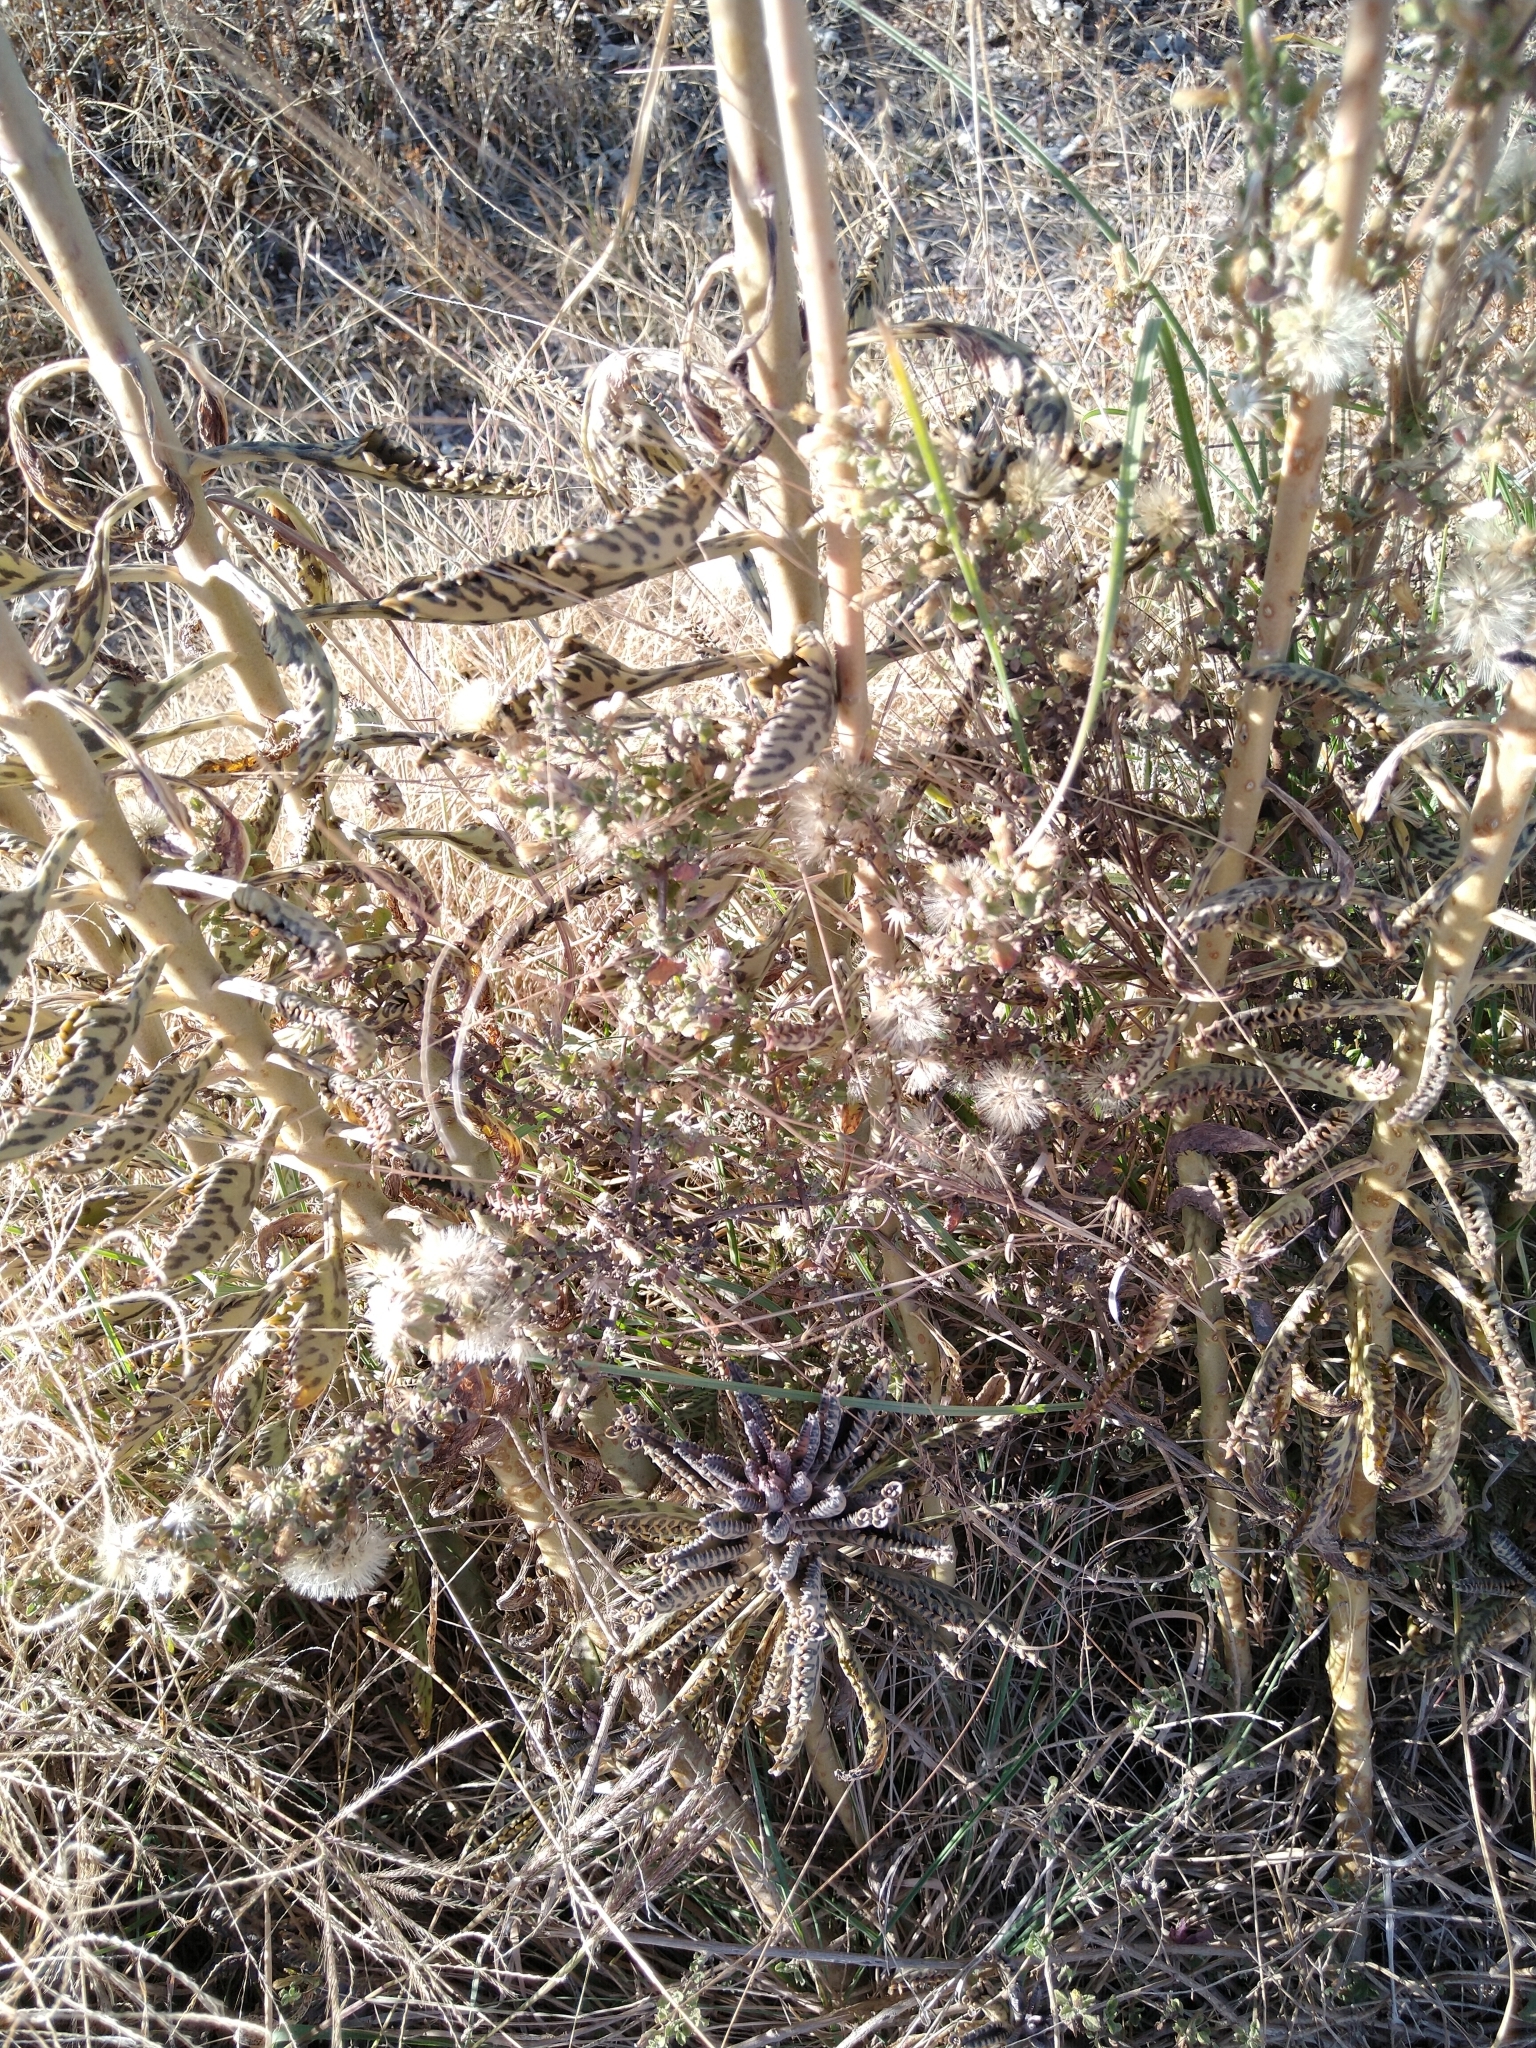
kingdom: Plantae
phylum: Tracheophyta
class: Magnoliopsida
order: Saxifragales
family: Crassulaceae
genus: Kalanchoe
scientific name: Kalanchoe houghtonii
